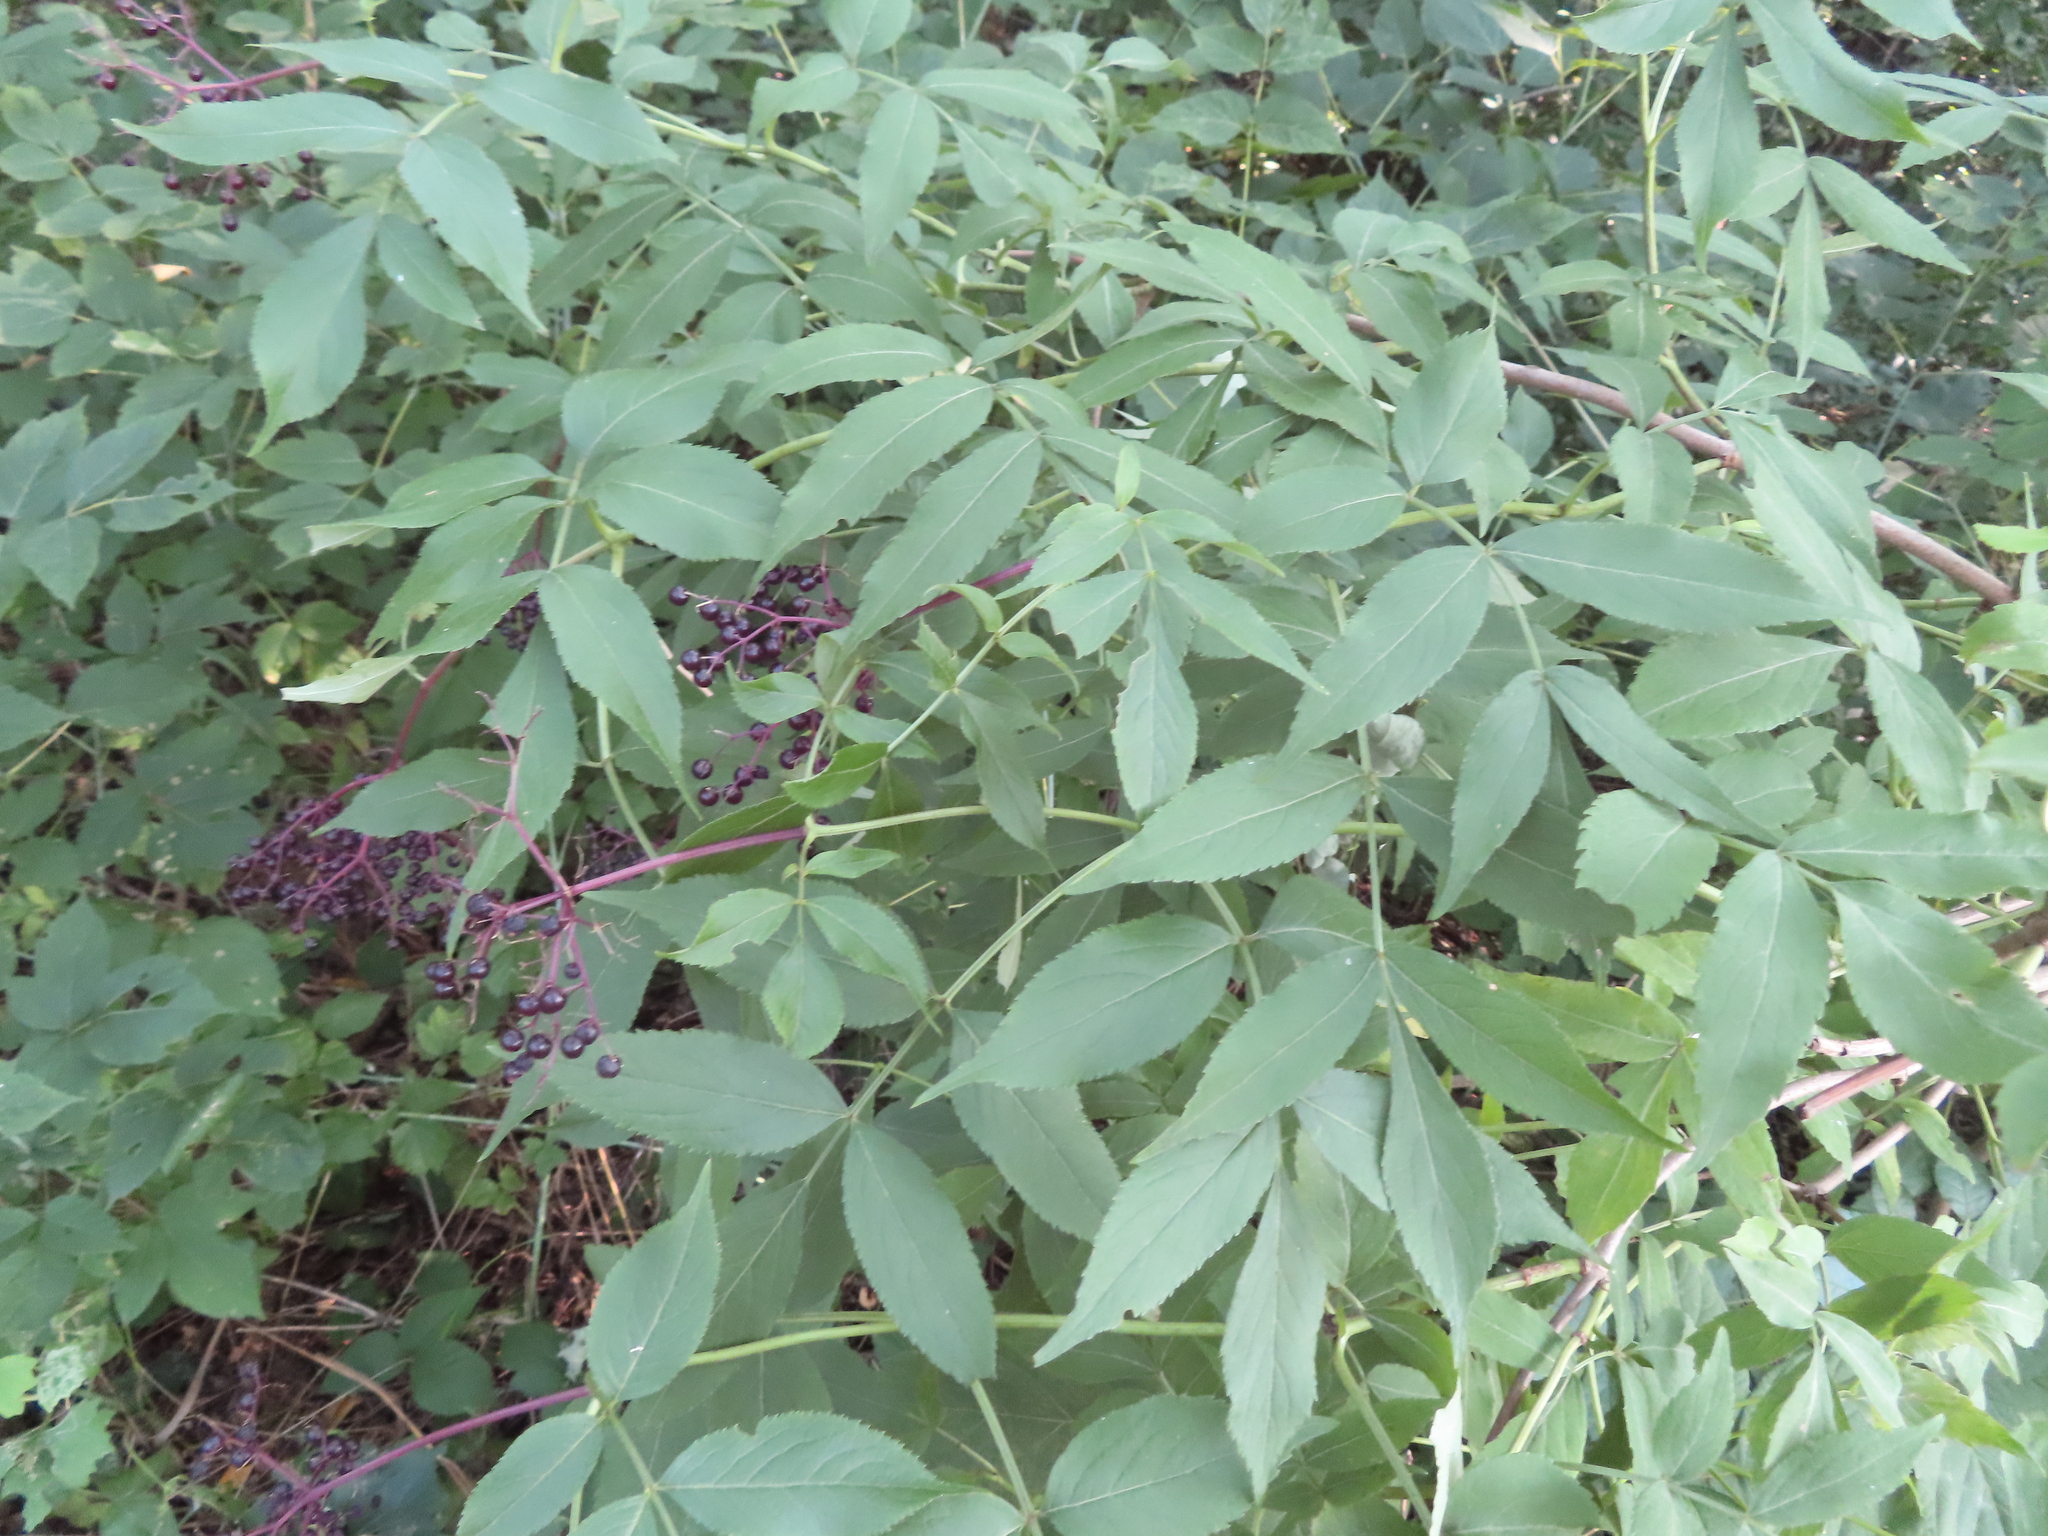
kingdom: Plantae
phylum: Tracheophyta
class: Magnoliopsida
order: Dipsacales
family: Viburnaceae
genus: Sambucus
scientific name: Sambucus canadensis
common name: American elder
